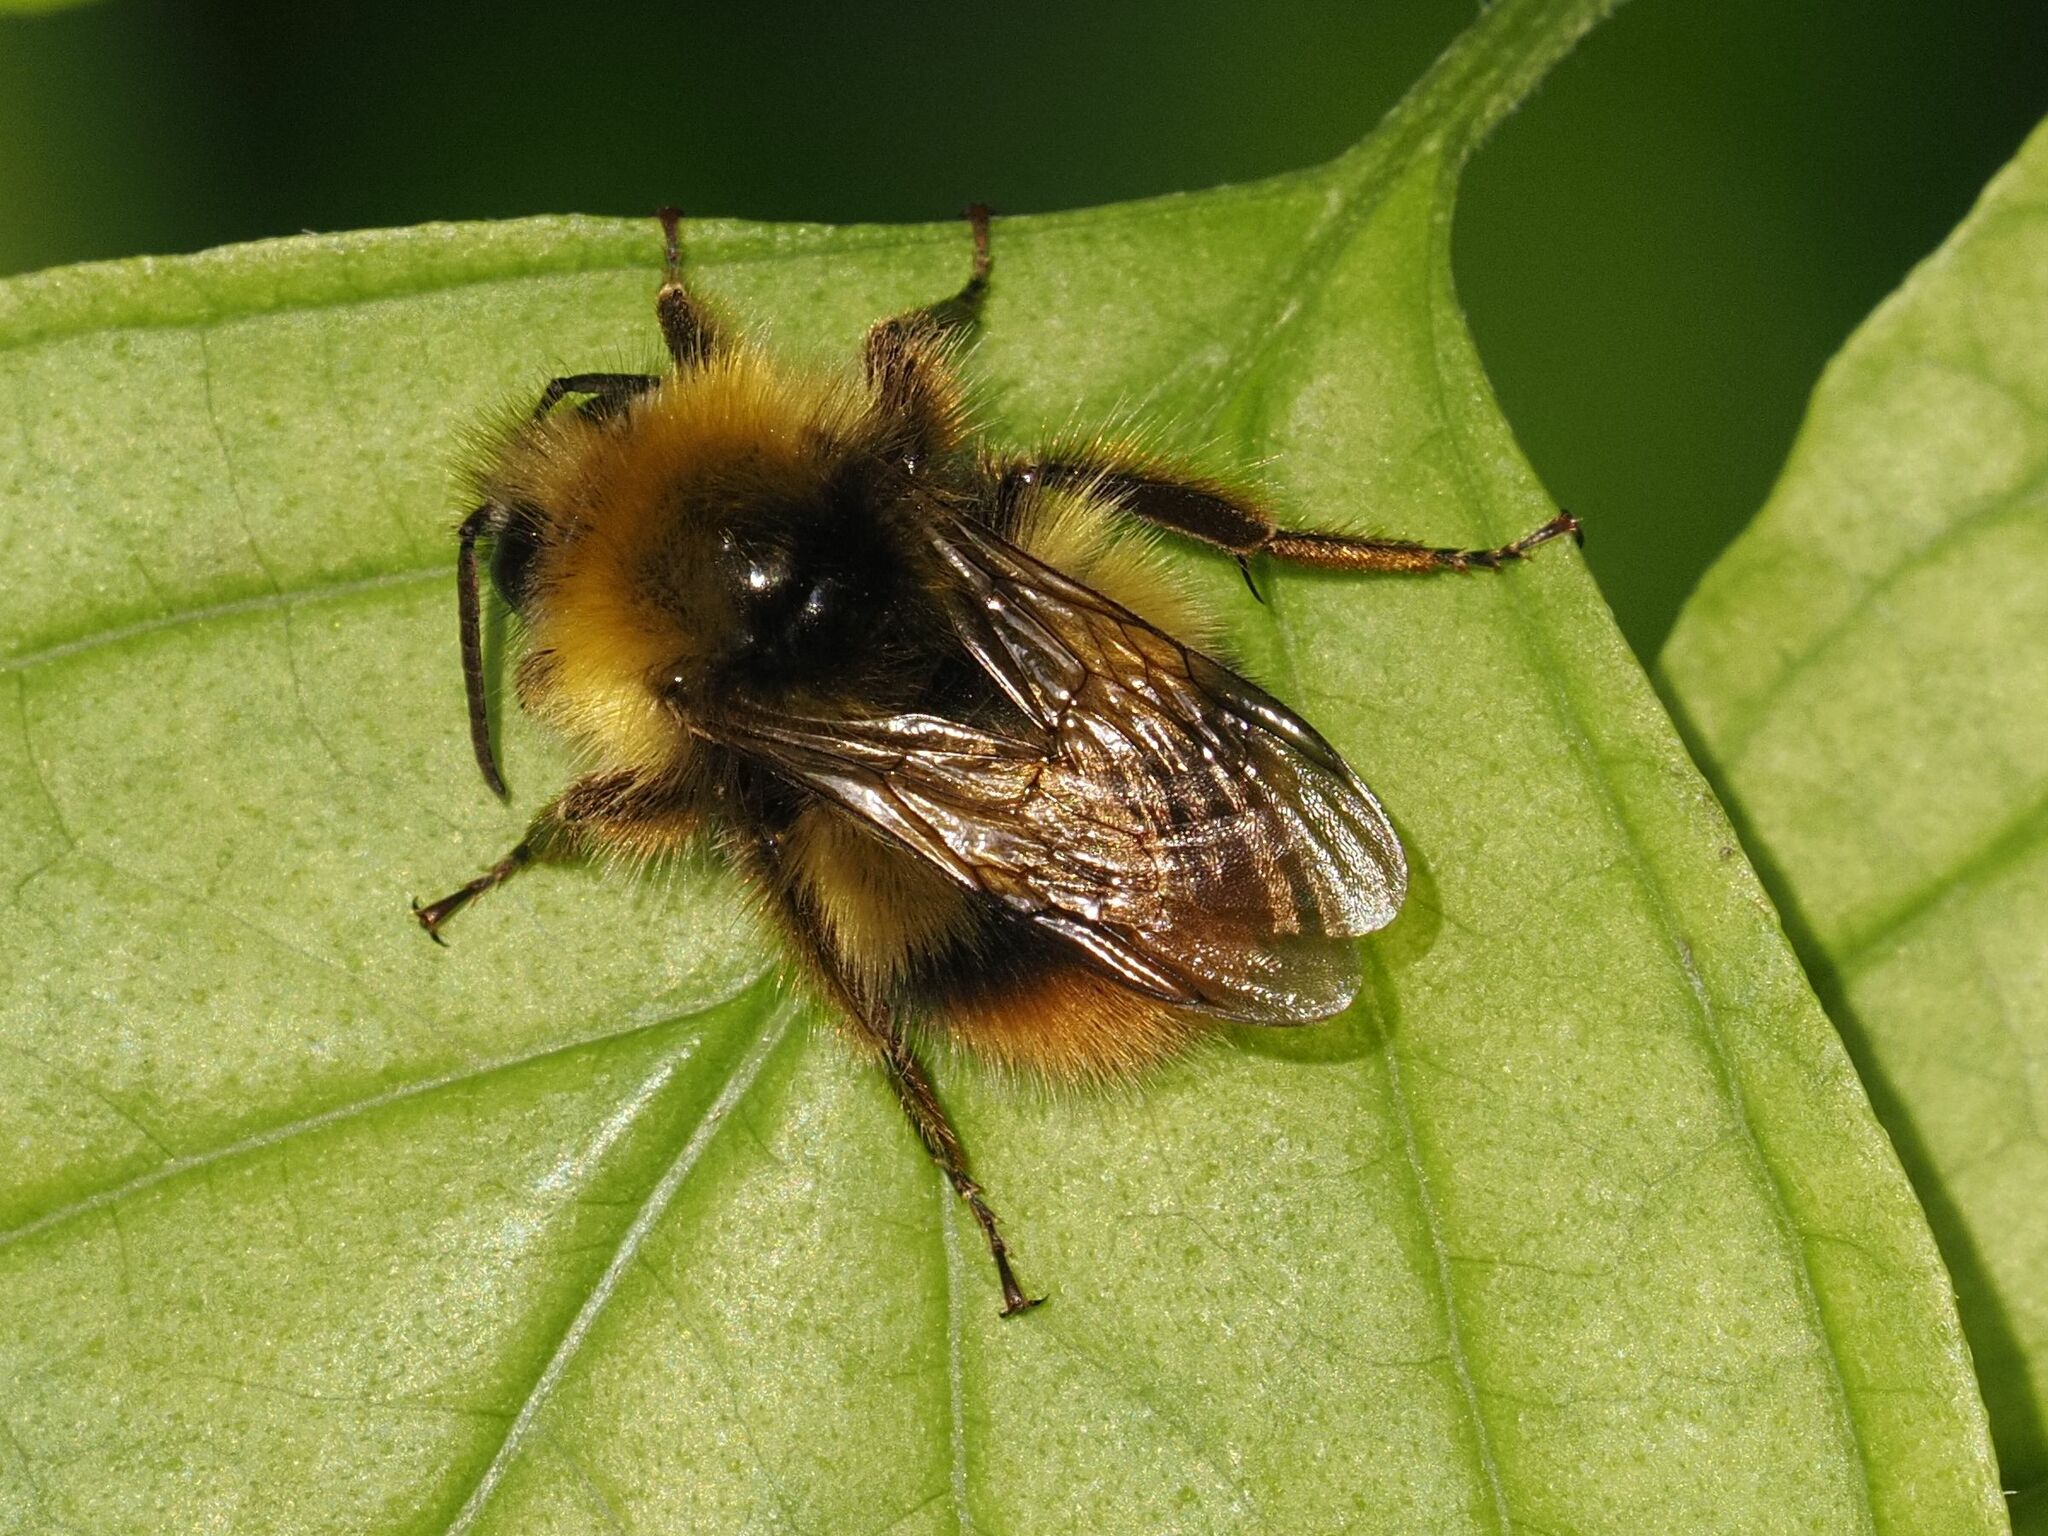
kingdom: Animalia
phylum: Arthropoda
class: Insecta
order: Hymenoptera
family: Apidae
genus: Bombus
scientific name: Bombus pratorum
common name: Early humble-bee
